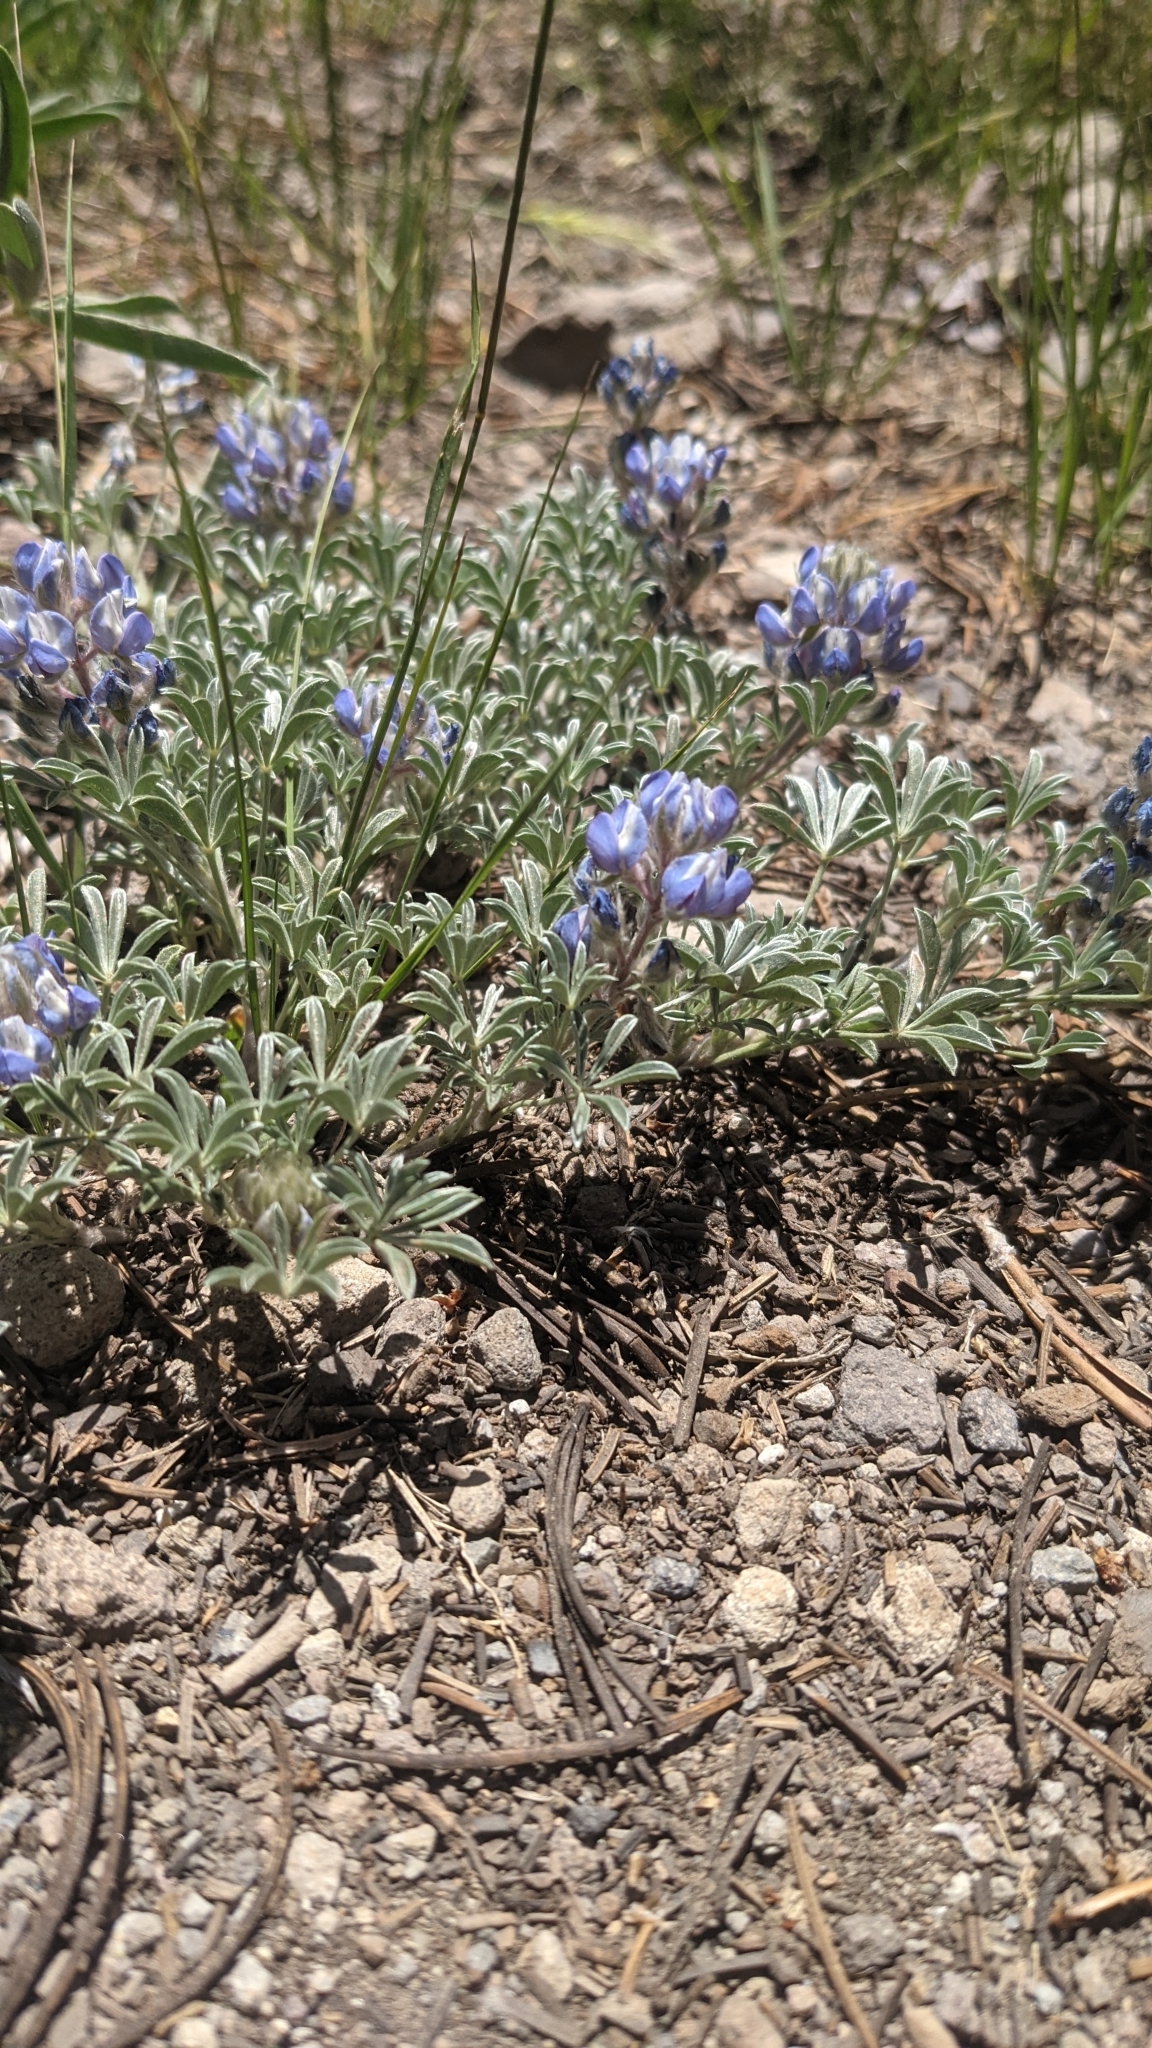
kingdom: Plantae
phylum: Tracheophyta
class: Magnoliopsida
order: Fabales
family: Fabaceae
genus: Lupinus
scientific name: Lupinus breweri
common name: Brewer's lupine
